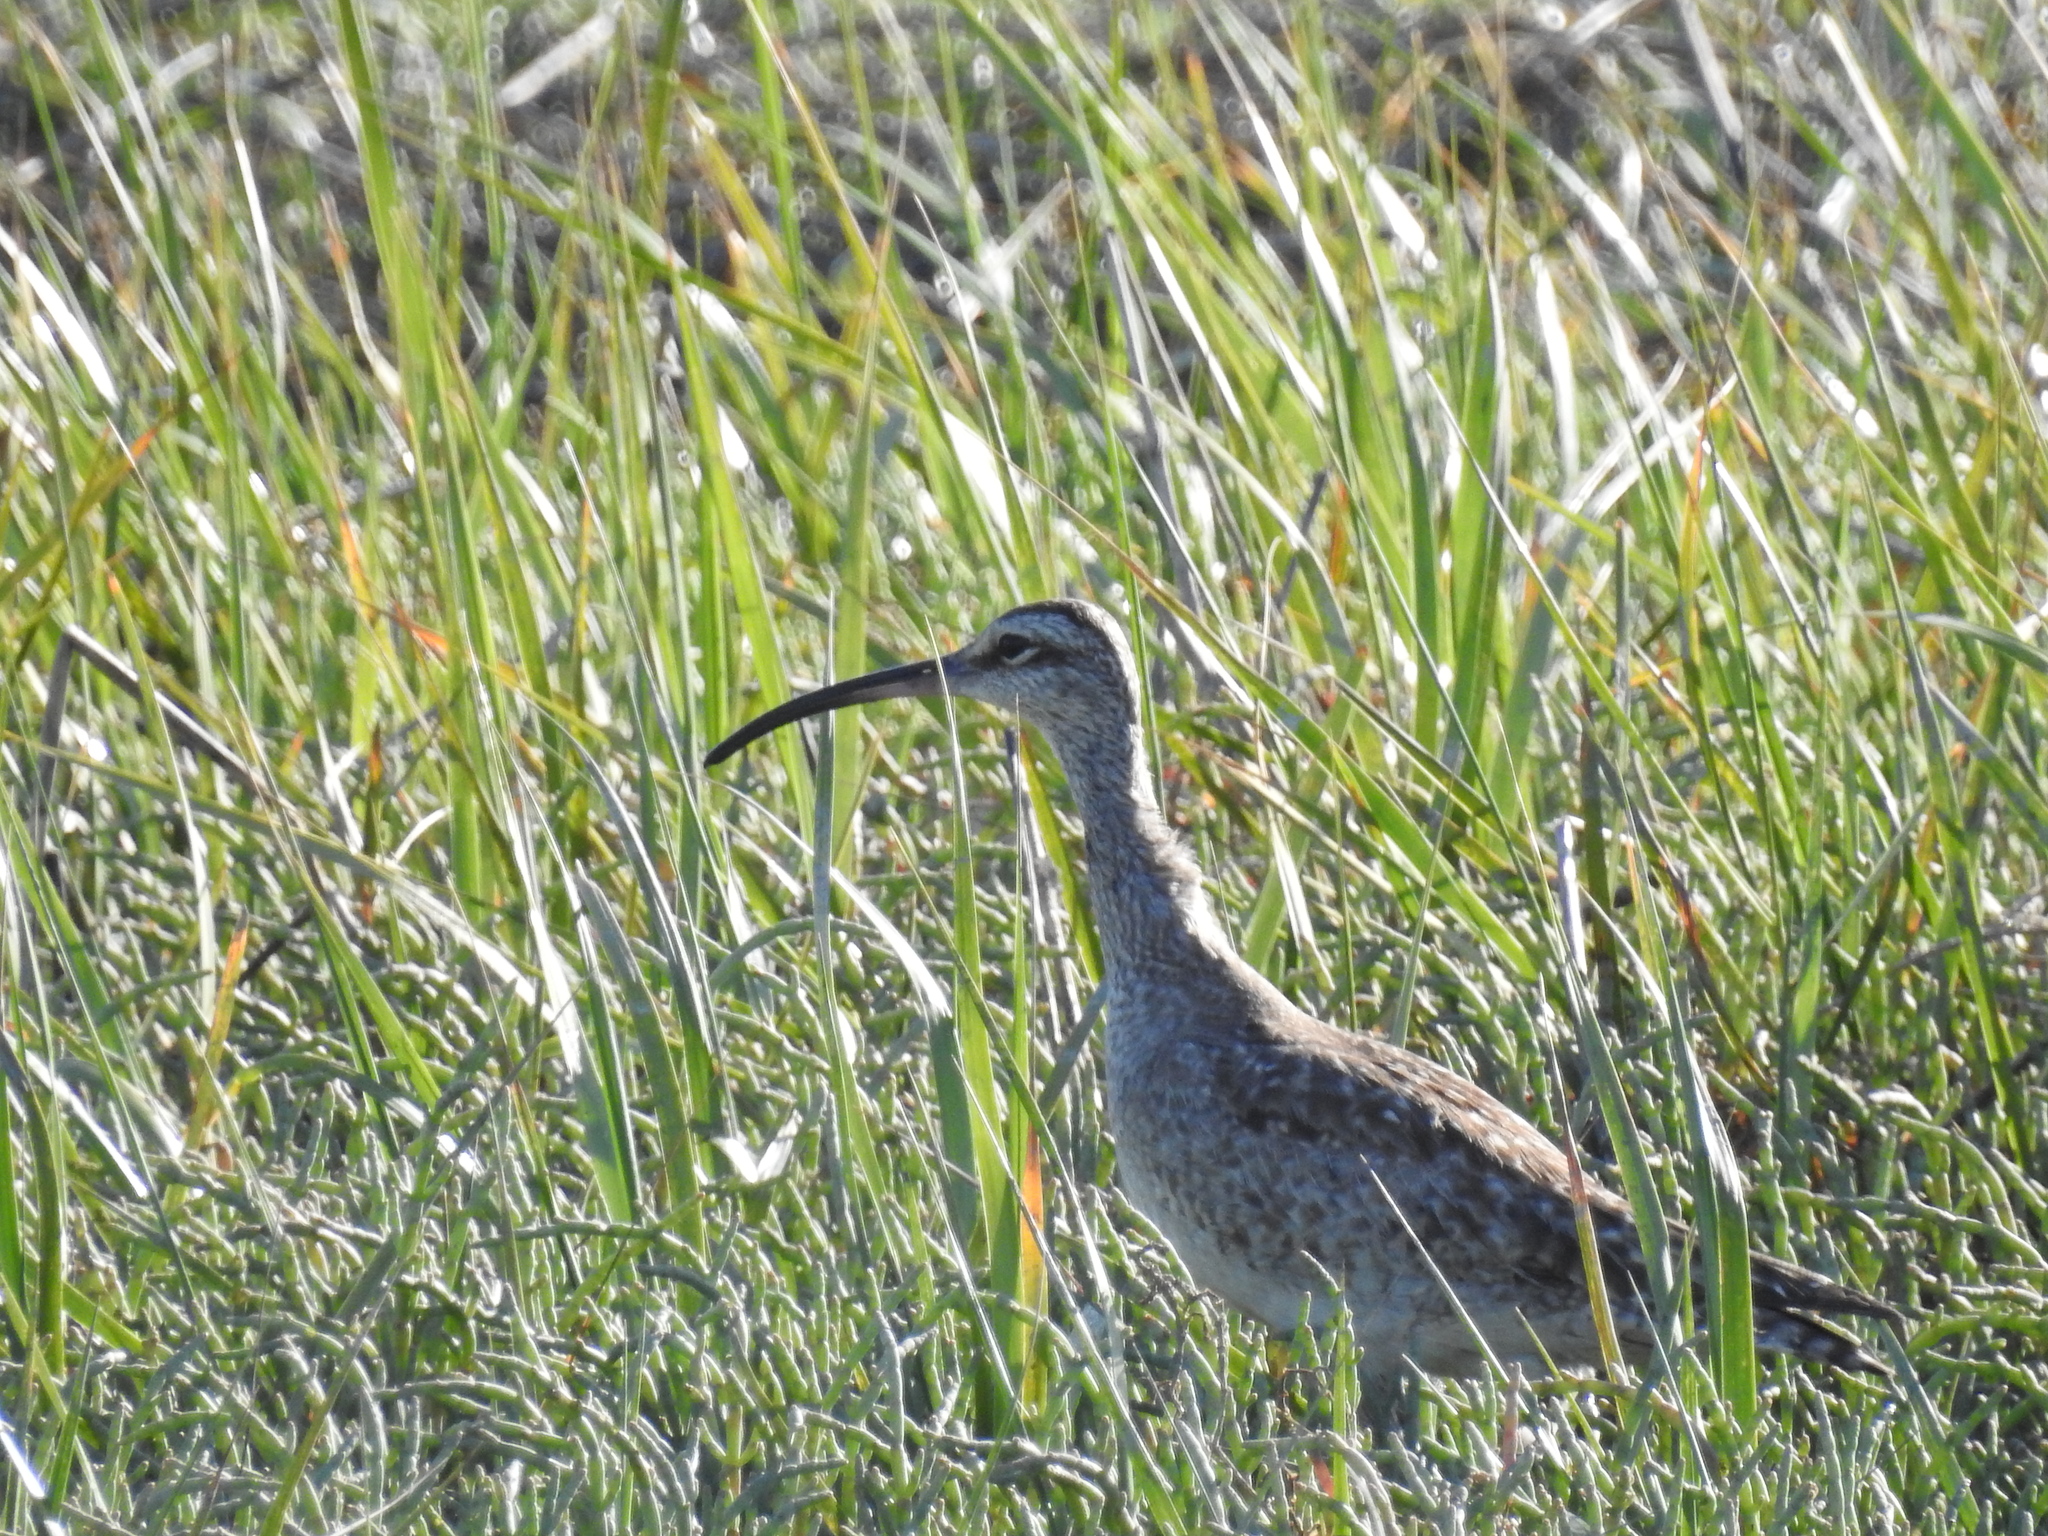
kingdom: Animalia
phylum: Chordata
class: Aves
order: Charadriiformes
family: Scolopacidae
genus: Numenius
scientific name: Numenius phaeopus
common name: Whimbrel
